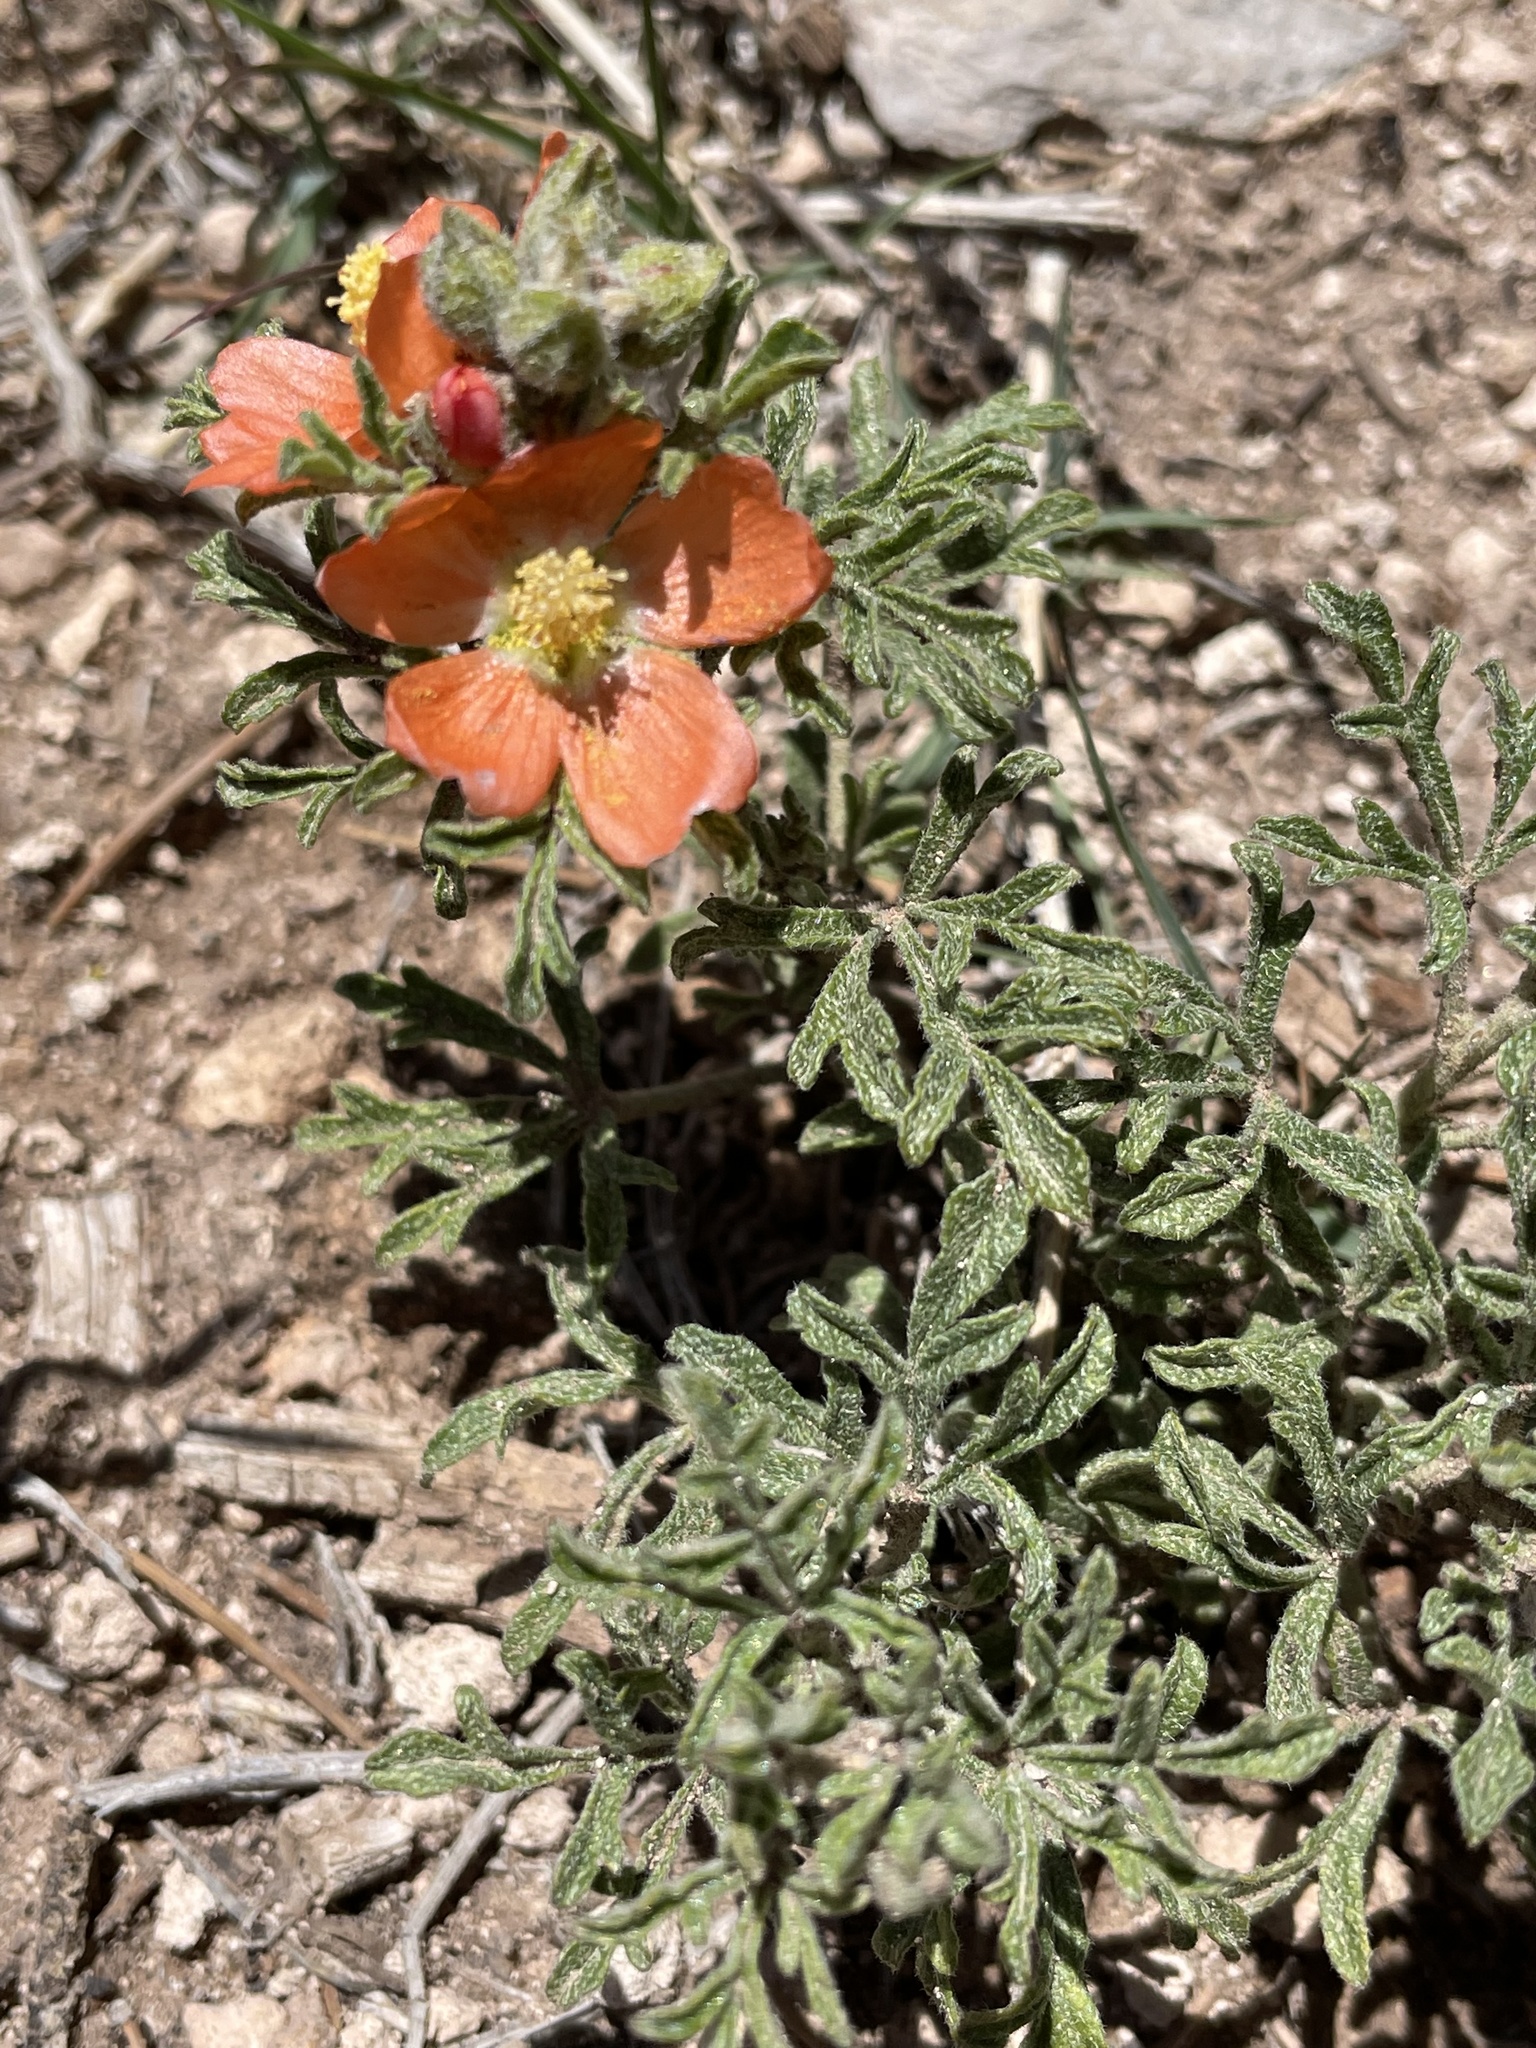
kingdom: Plantae
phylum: Tracheophyta
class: Magnoliopsida
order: Malvales
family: Malvaceae
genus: Sphaeralcea
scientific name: Sphaeralcea coccinea
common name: Moss-rose
